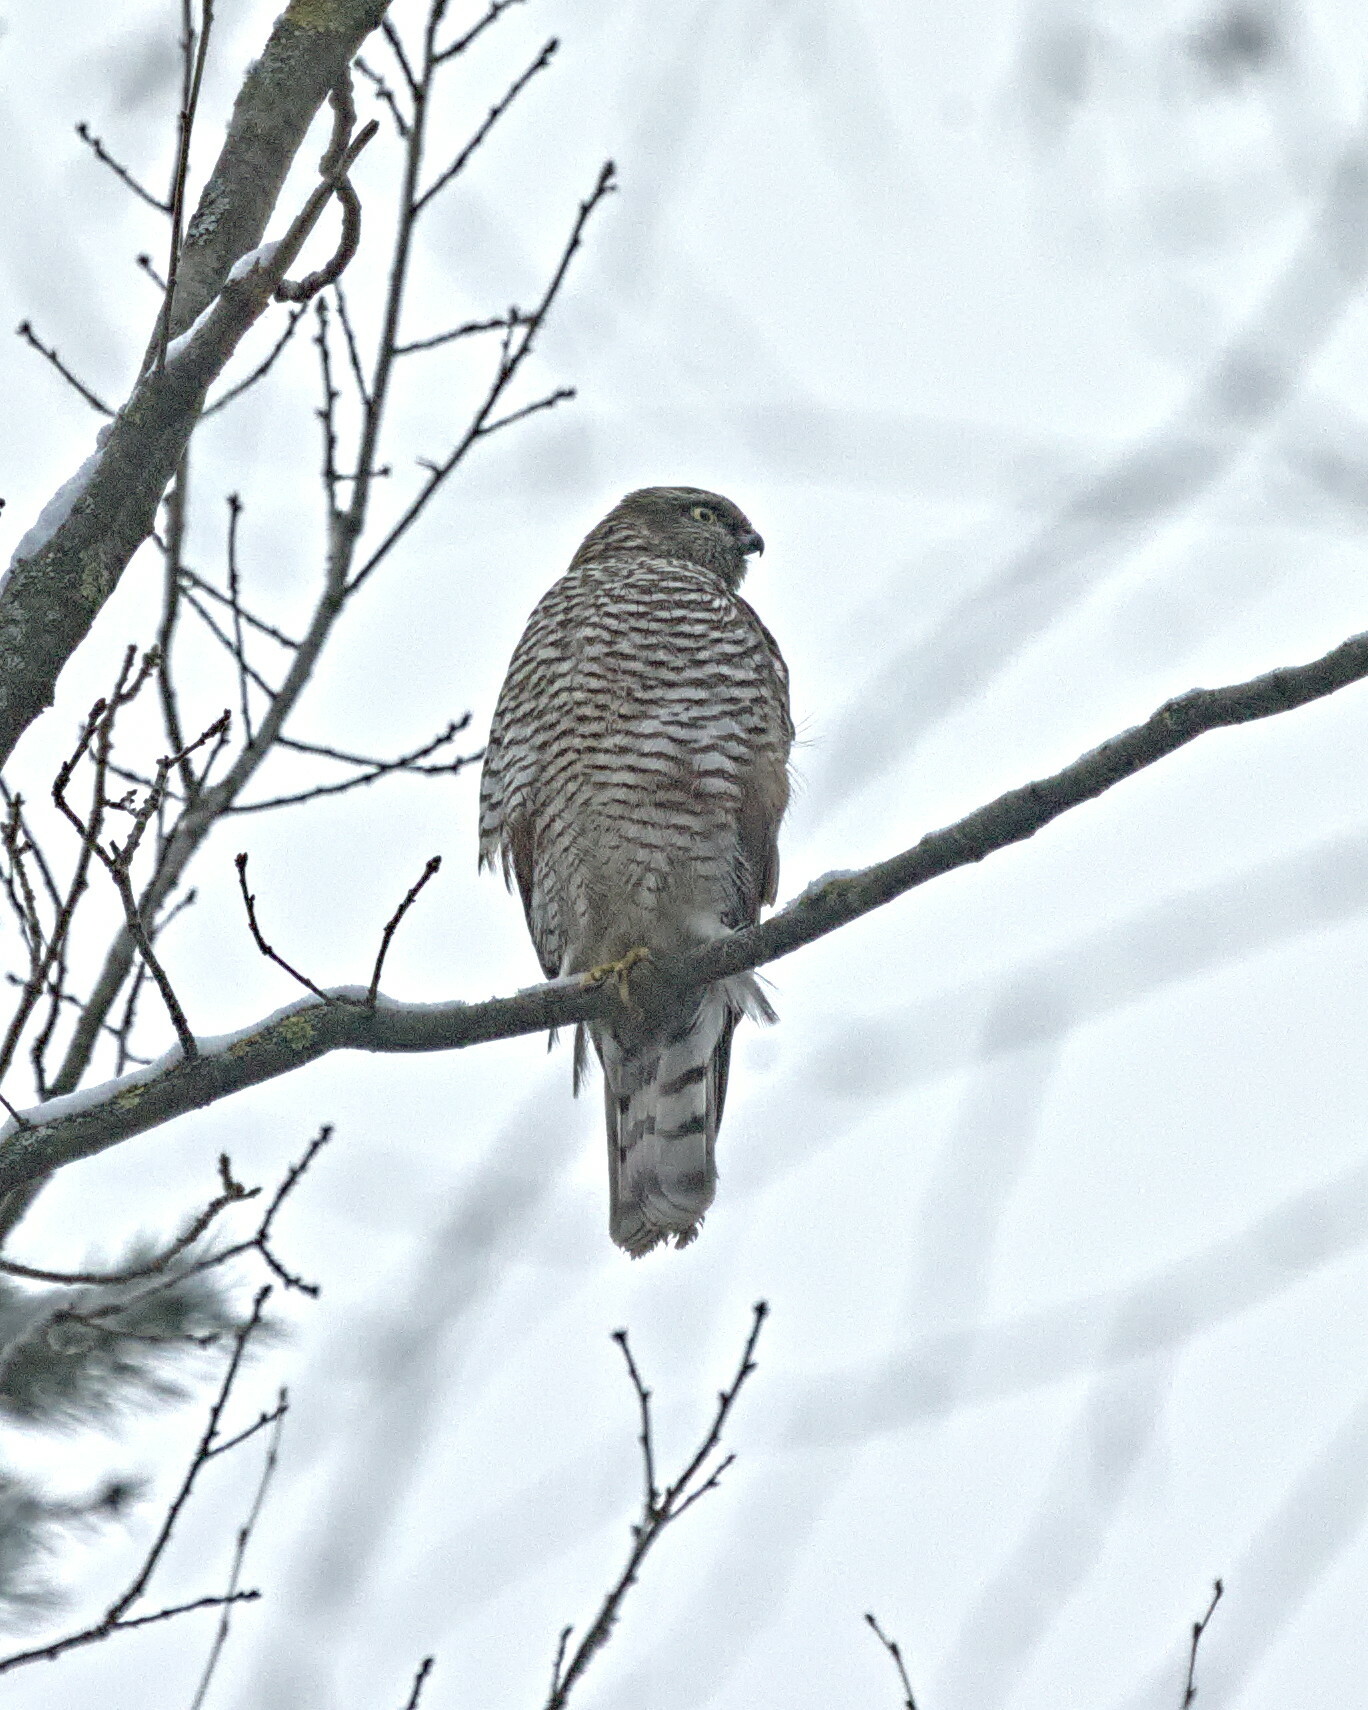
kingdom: Animalia
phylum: Chordata
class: Aves
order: Accipitriformes
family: Accipitridae
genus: Accipiter
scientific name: Accipiter nisus
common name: Eurasian sparrowhawk
